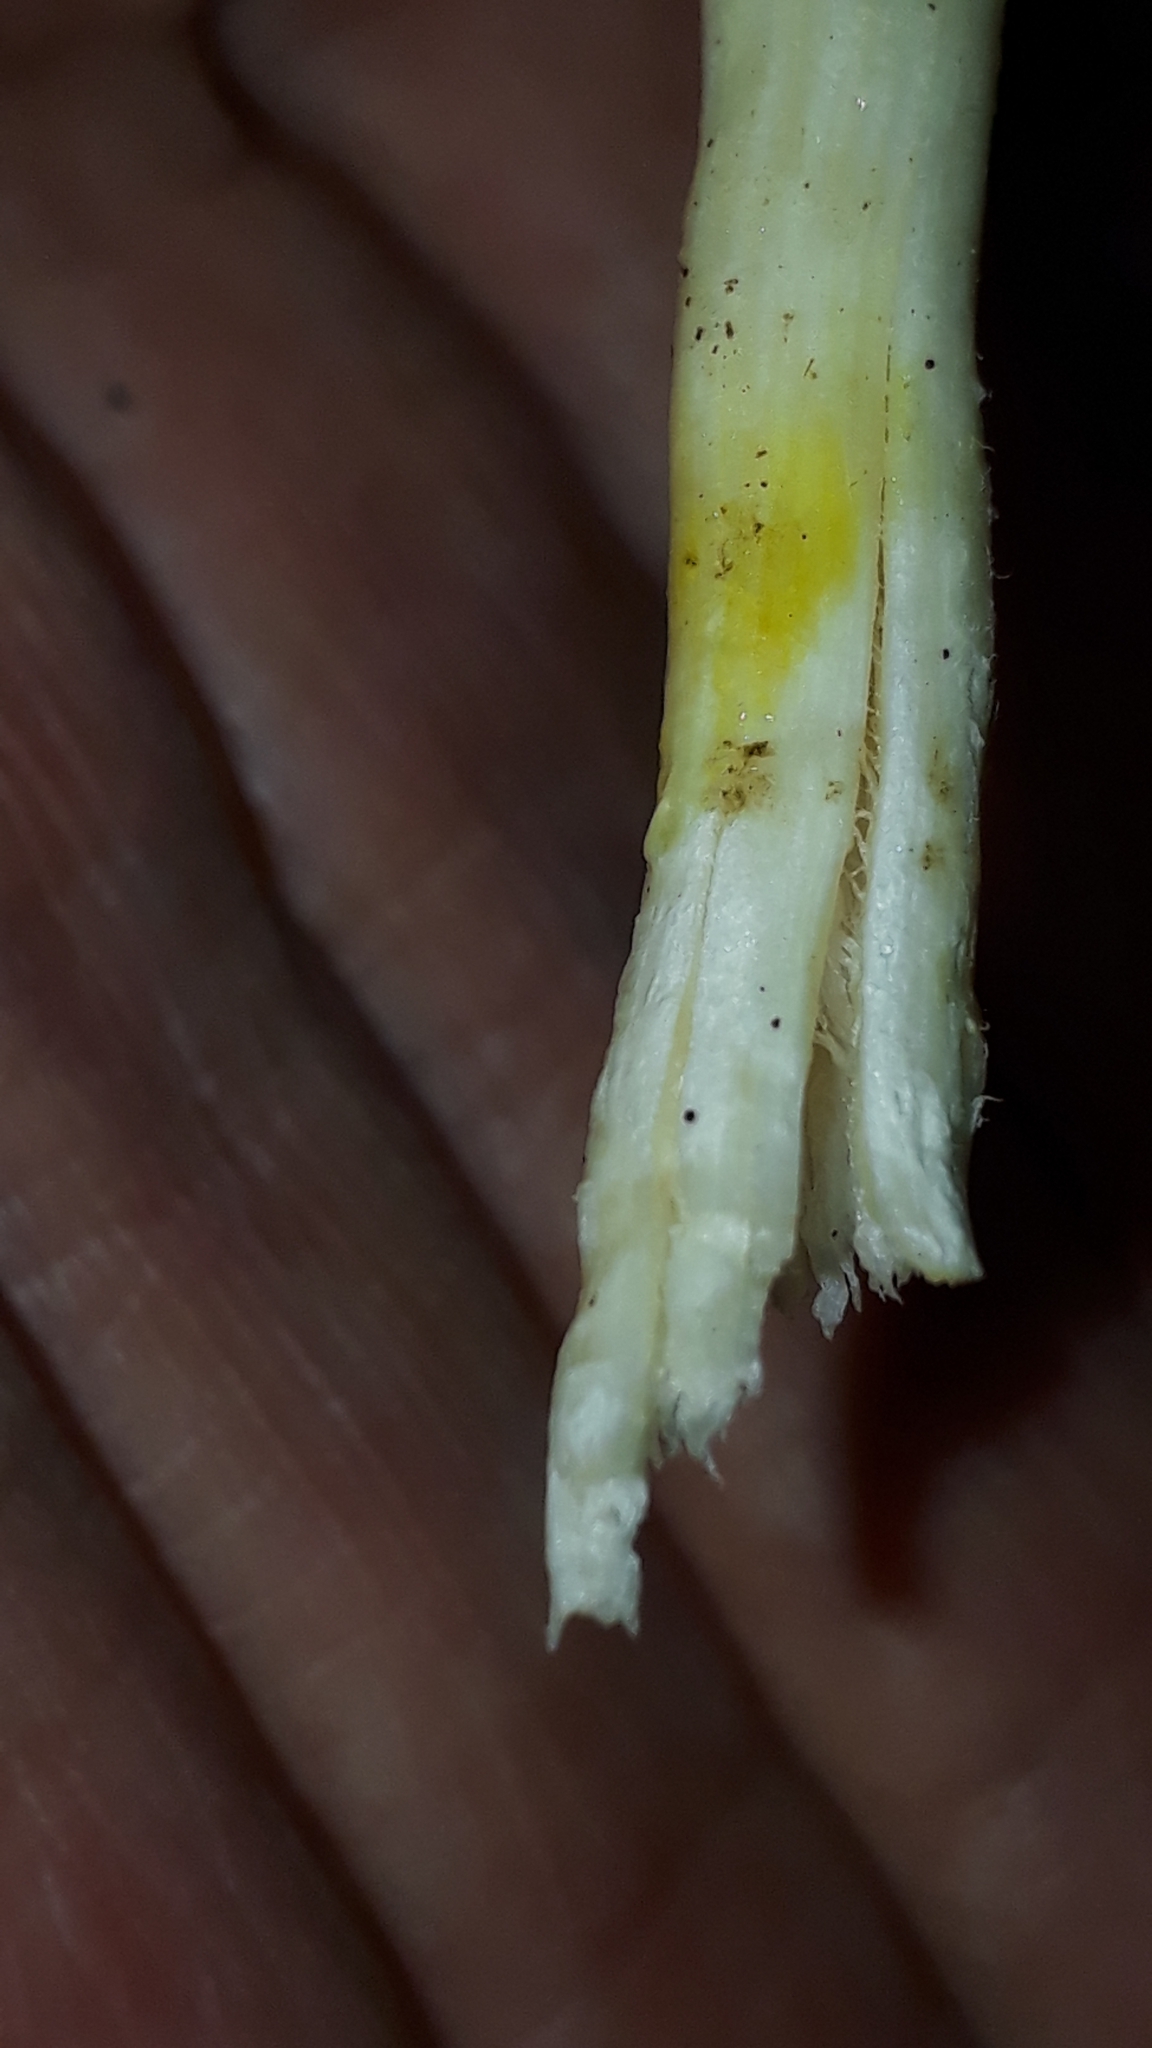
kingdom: Fungi
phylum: Basidiomycota
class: Agaricomycetes
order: Agaricales
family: Hygrophoraceae
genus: Hygrophorus
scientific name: Hygrophorus eburneus
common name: Ivory wax-cap
